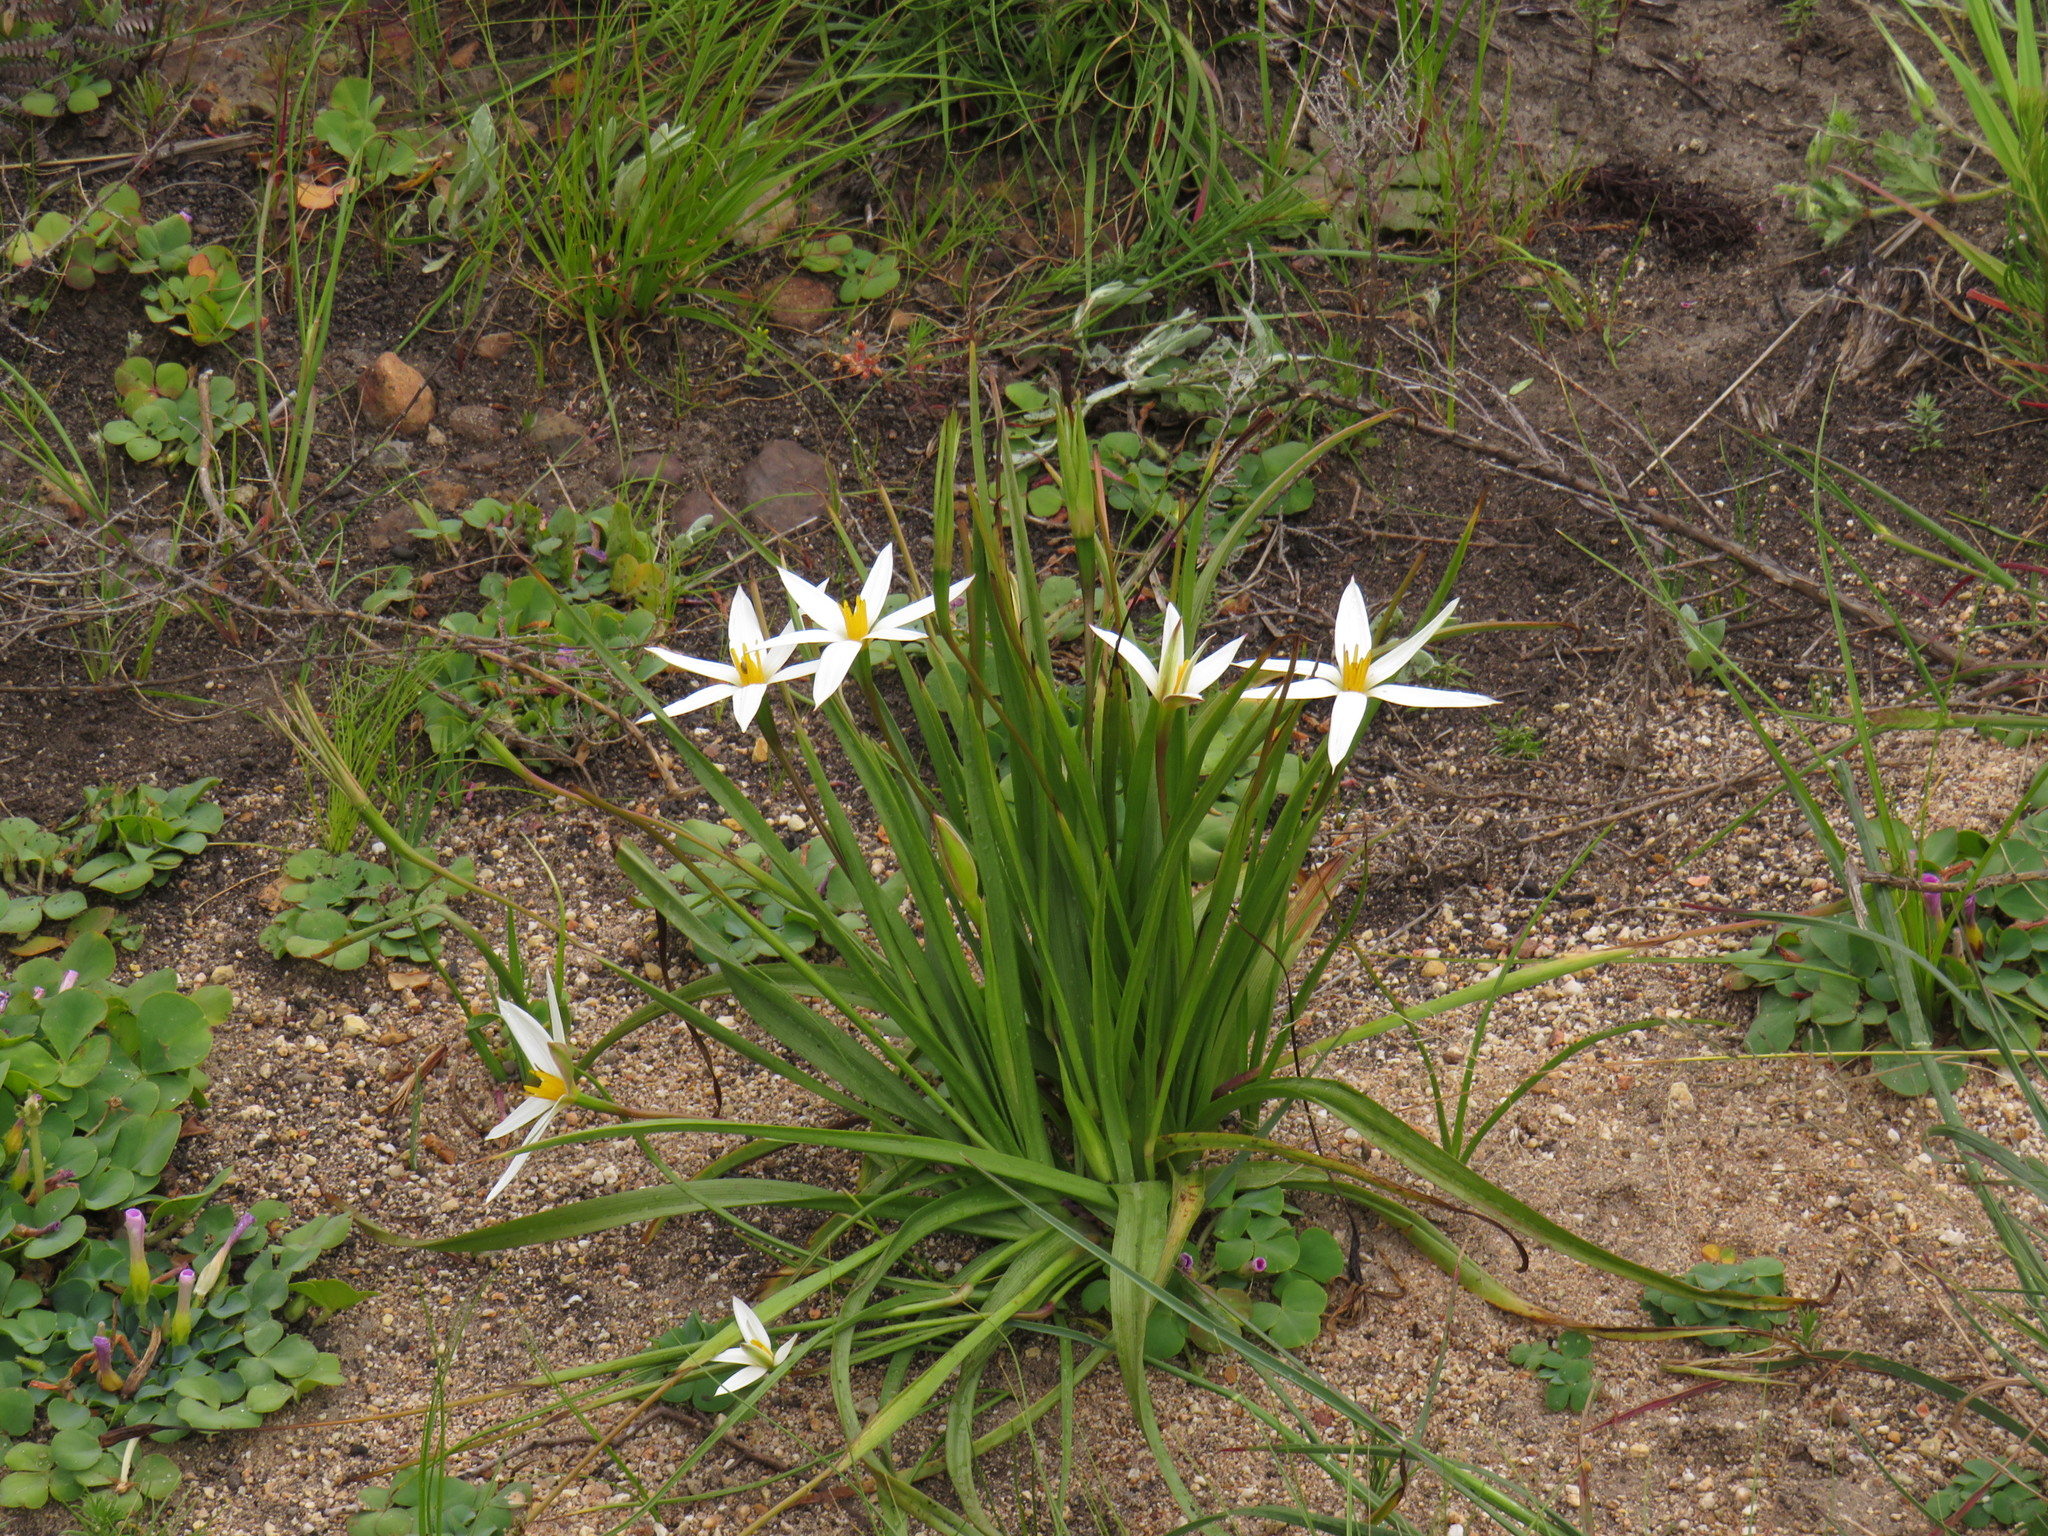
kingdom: Plantae
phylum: Tracheophyta
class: Liliopsida
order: Asparagales
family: Hypoxidaceae
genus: Pauridia
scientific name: Pauridia capensis
